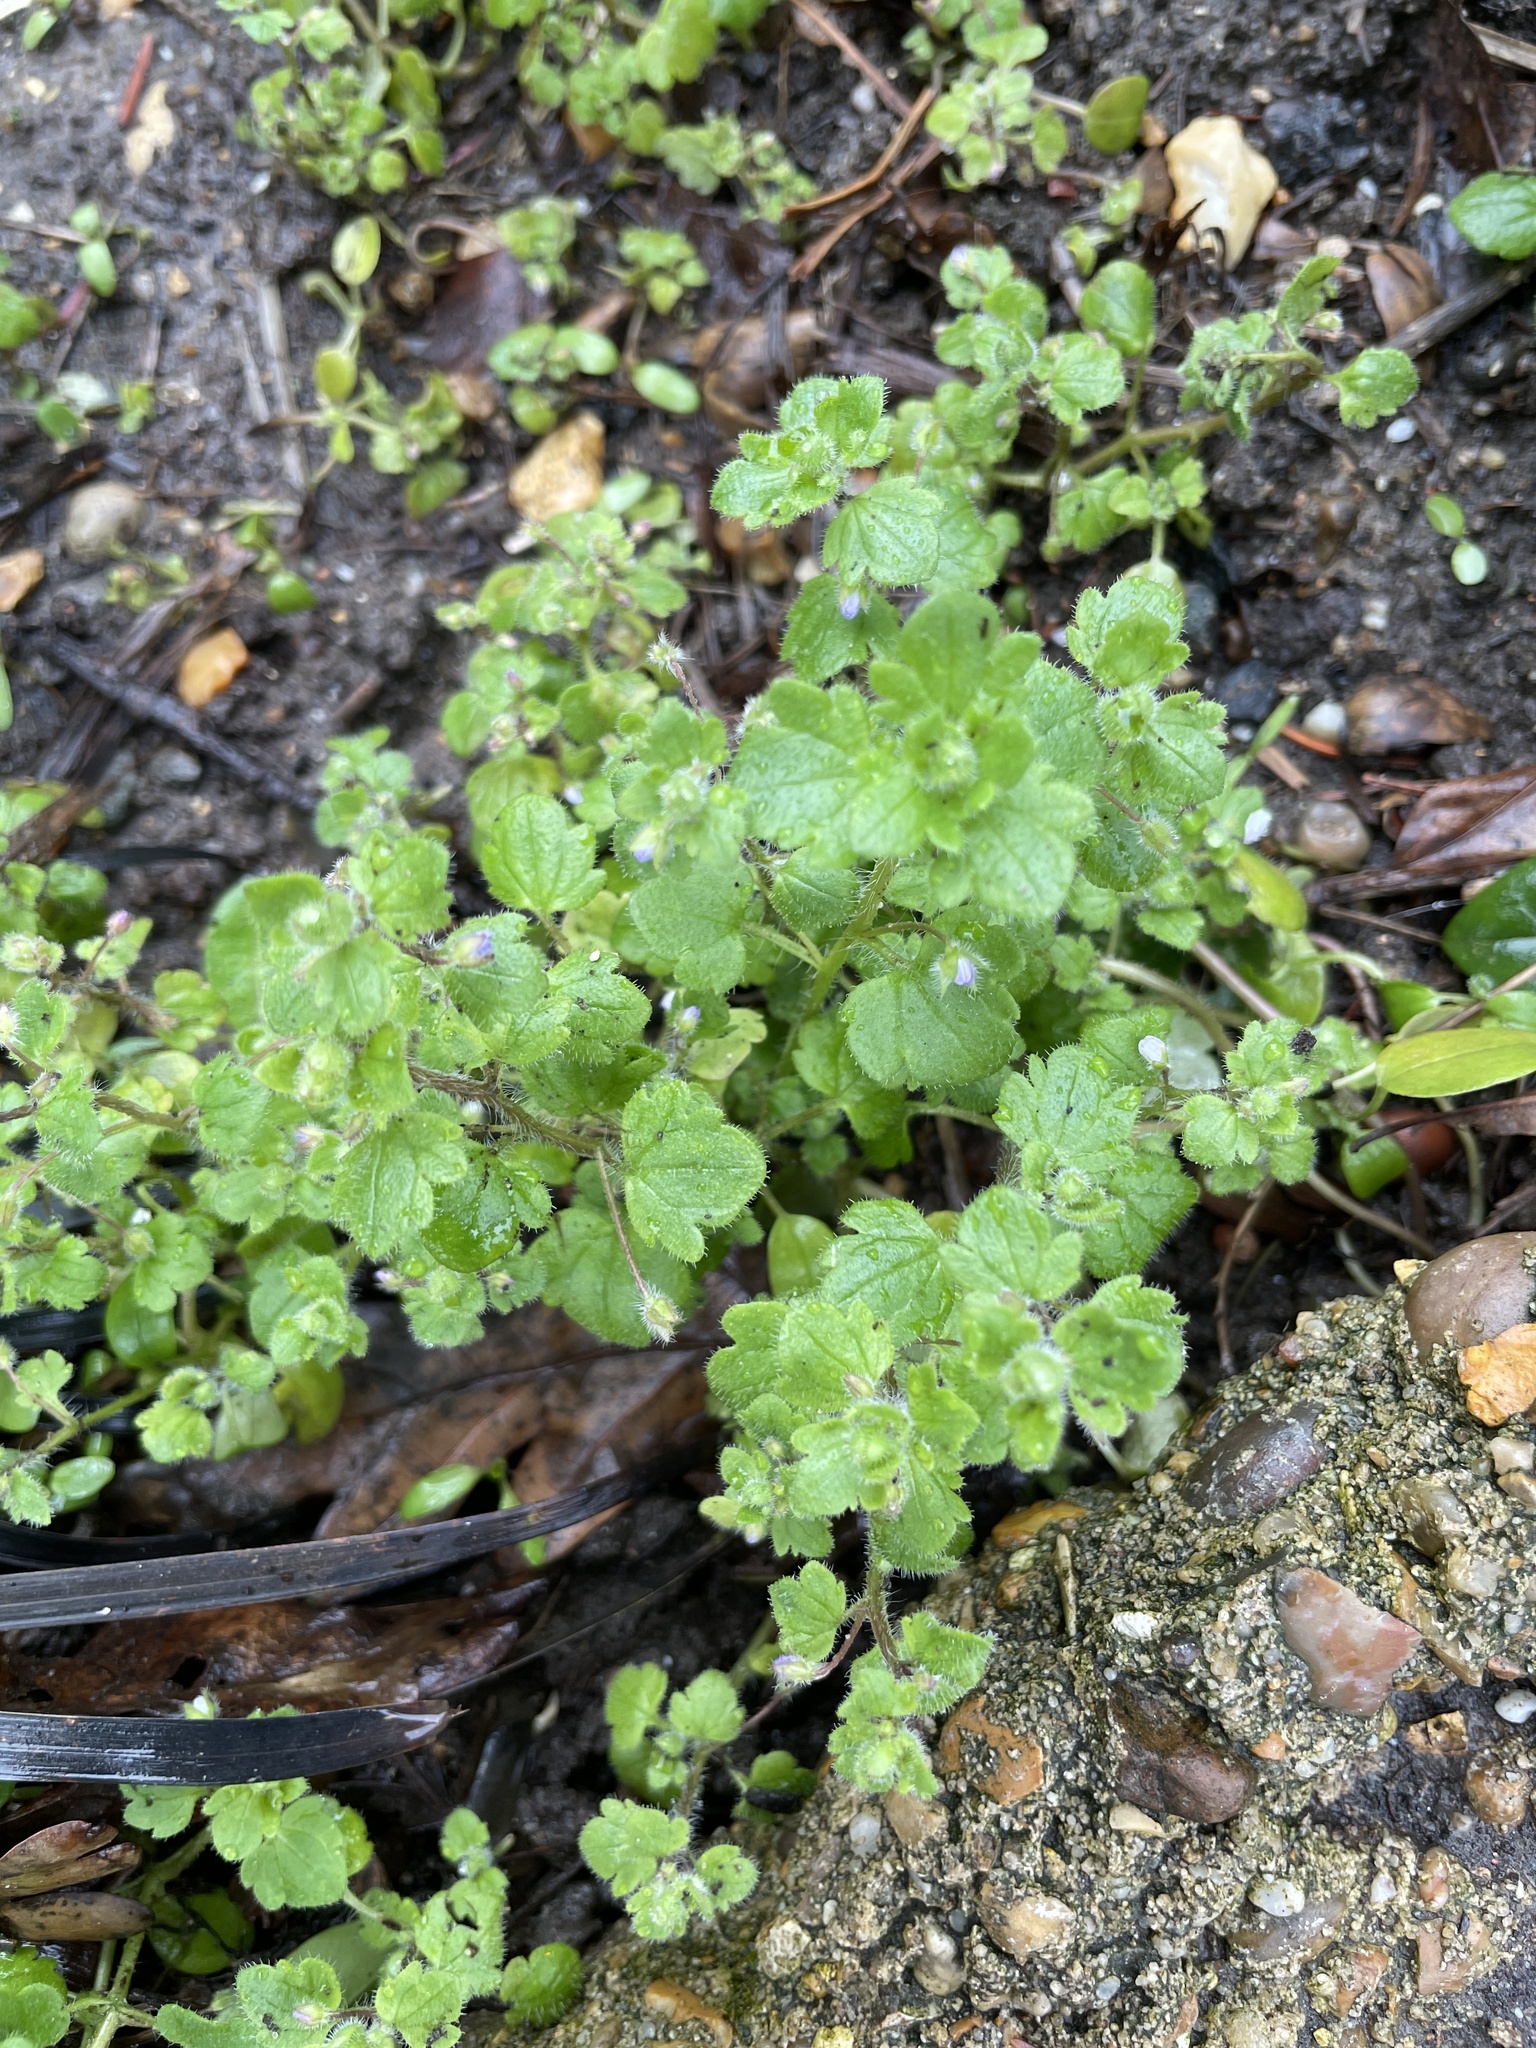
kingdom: Plantae
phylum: Tracheophyta
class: Magnoliopsida
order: Lamiales
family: Plantaginaceae
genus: Veronica
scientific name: Veronica hederifolia
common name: Ivy-leaved speedwell
